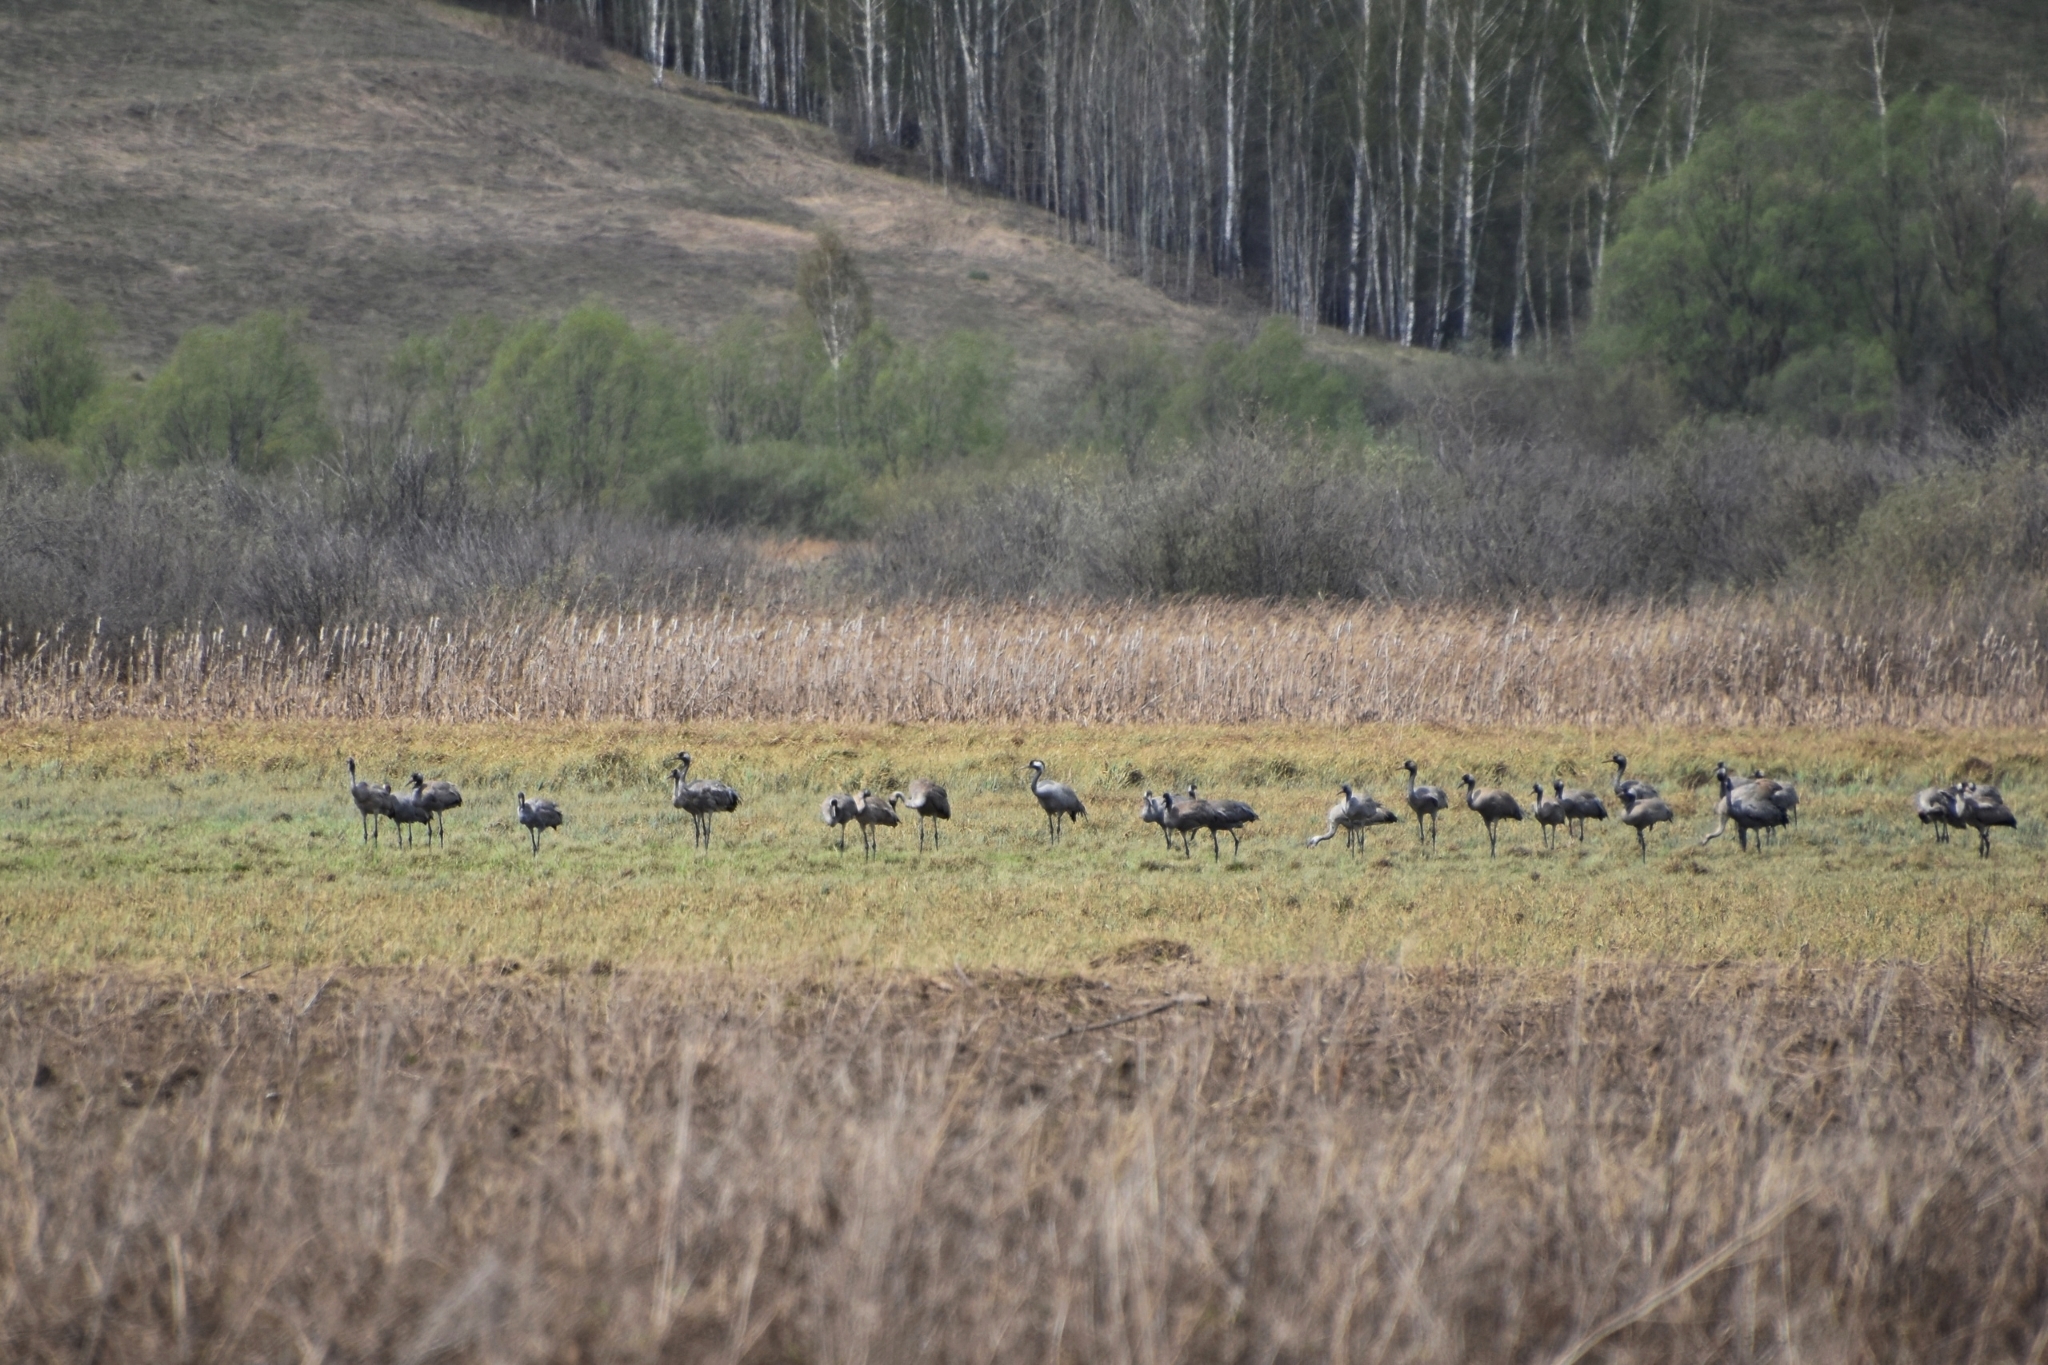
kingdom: Animalia
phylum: Chordata
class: Aves
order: Gruiformes
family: Gruidae
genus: Grus
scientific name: Grus grus
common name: Common crane
